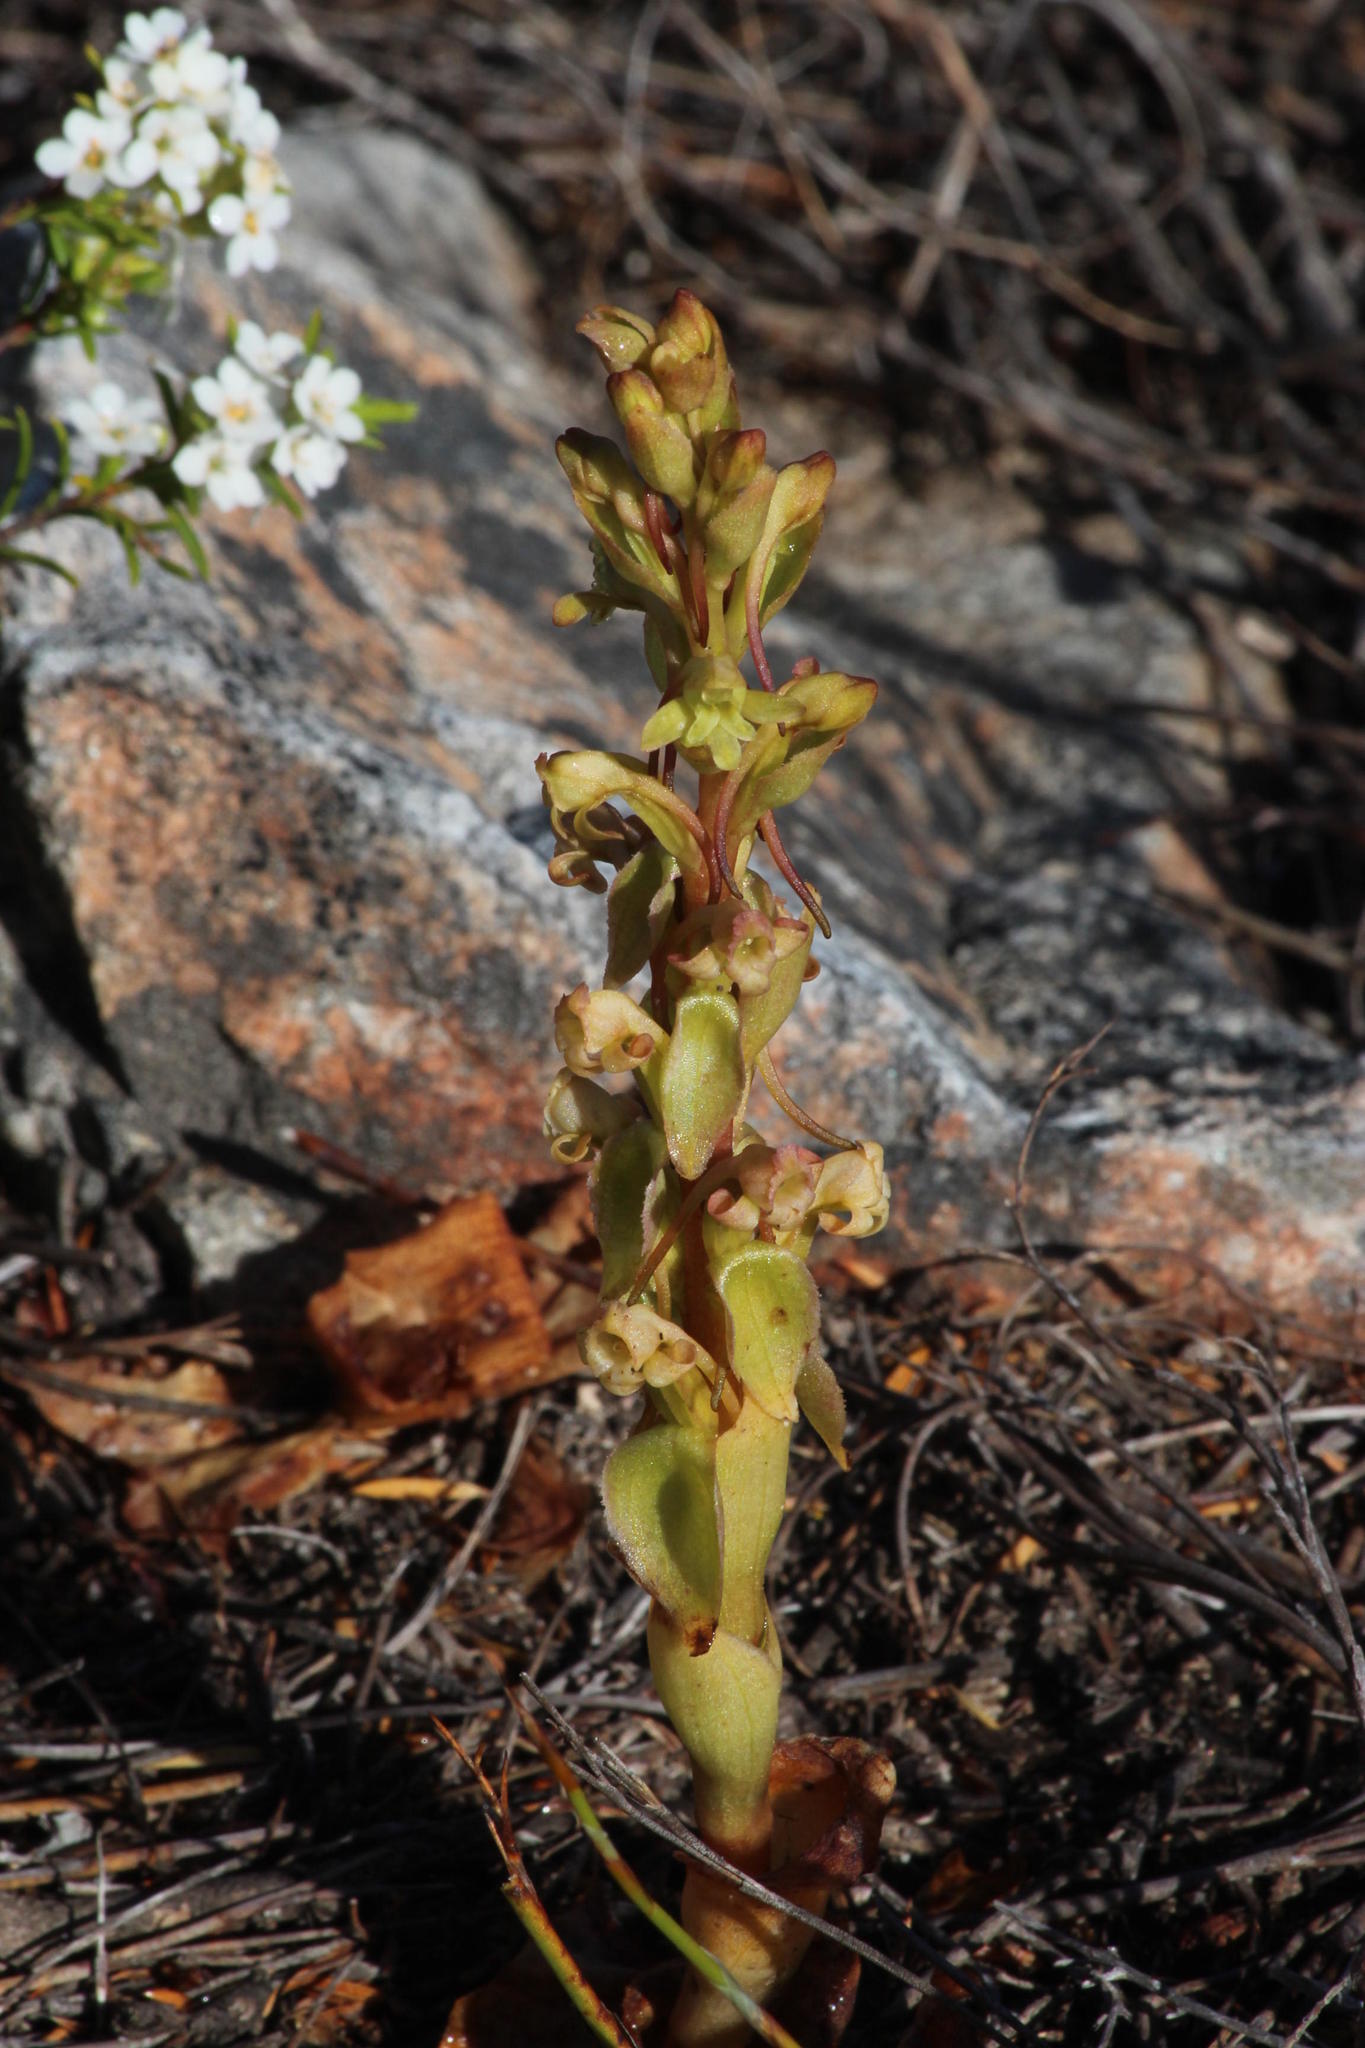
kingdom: Plantae
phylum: Tracheophyta
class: Liliopsida
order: Asparagales
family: Orchidaceae
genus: Satyrium
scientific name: Satyrium humile
